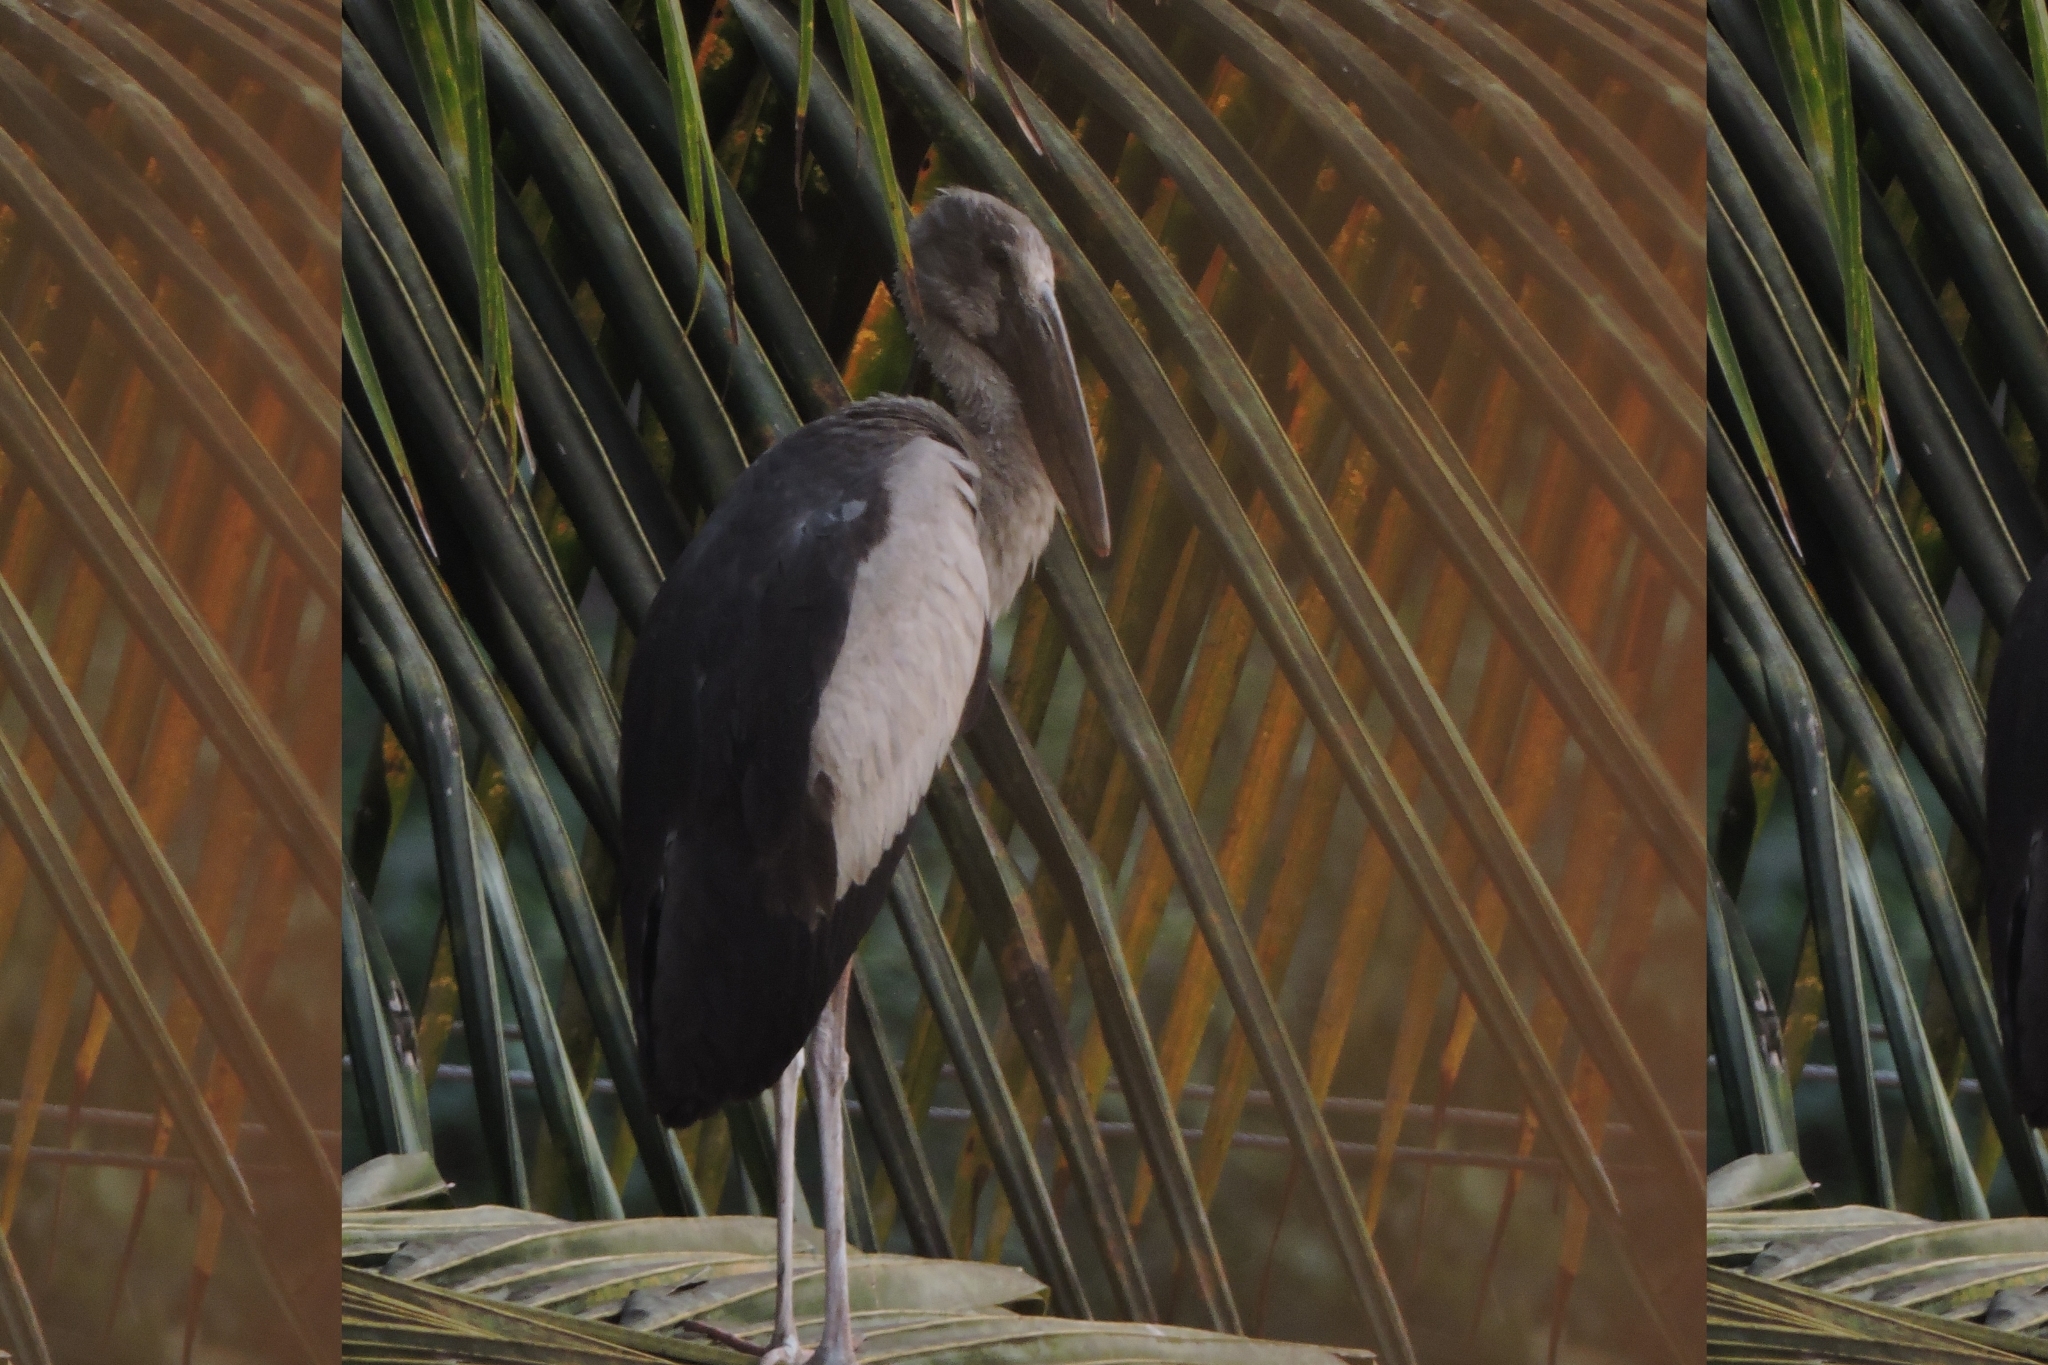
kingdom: Animalia
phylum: Chordata
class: Aves
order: Ciconiiformes
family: Ciconiidae
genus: Anastomus
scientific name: Anastomus oscitans
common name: Asian openbill
